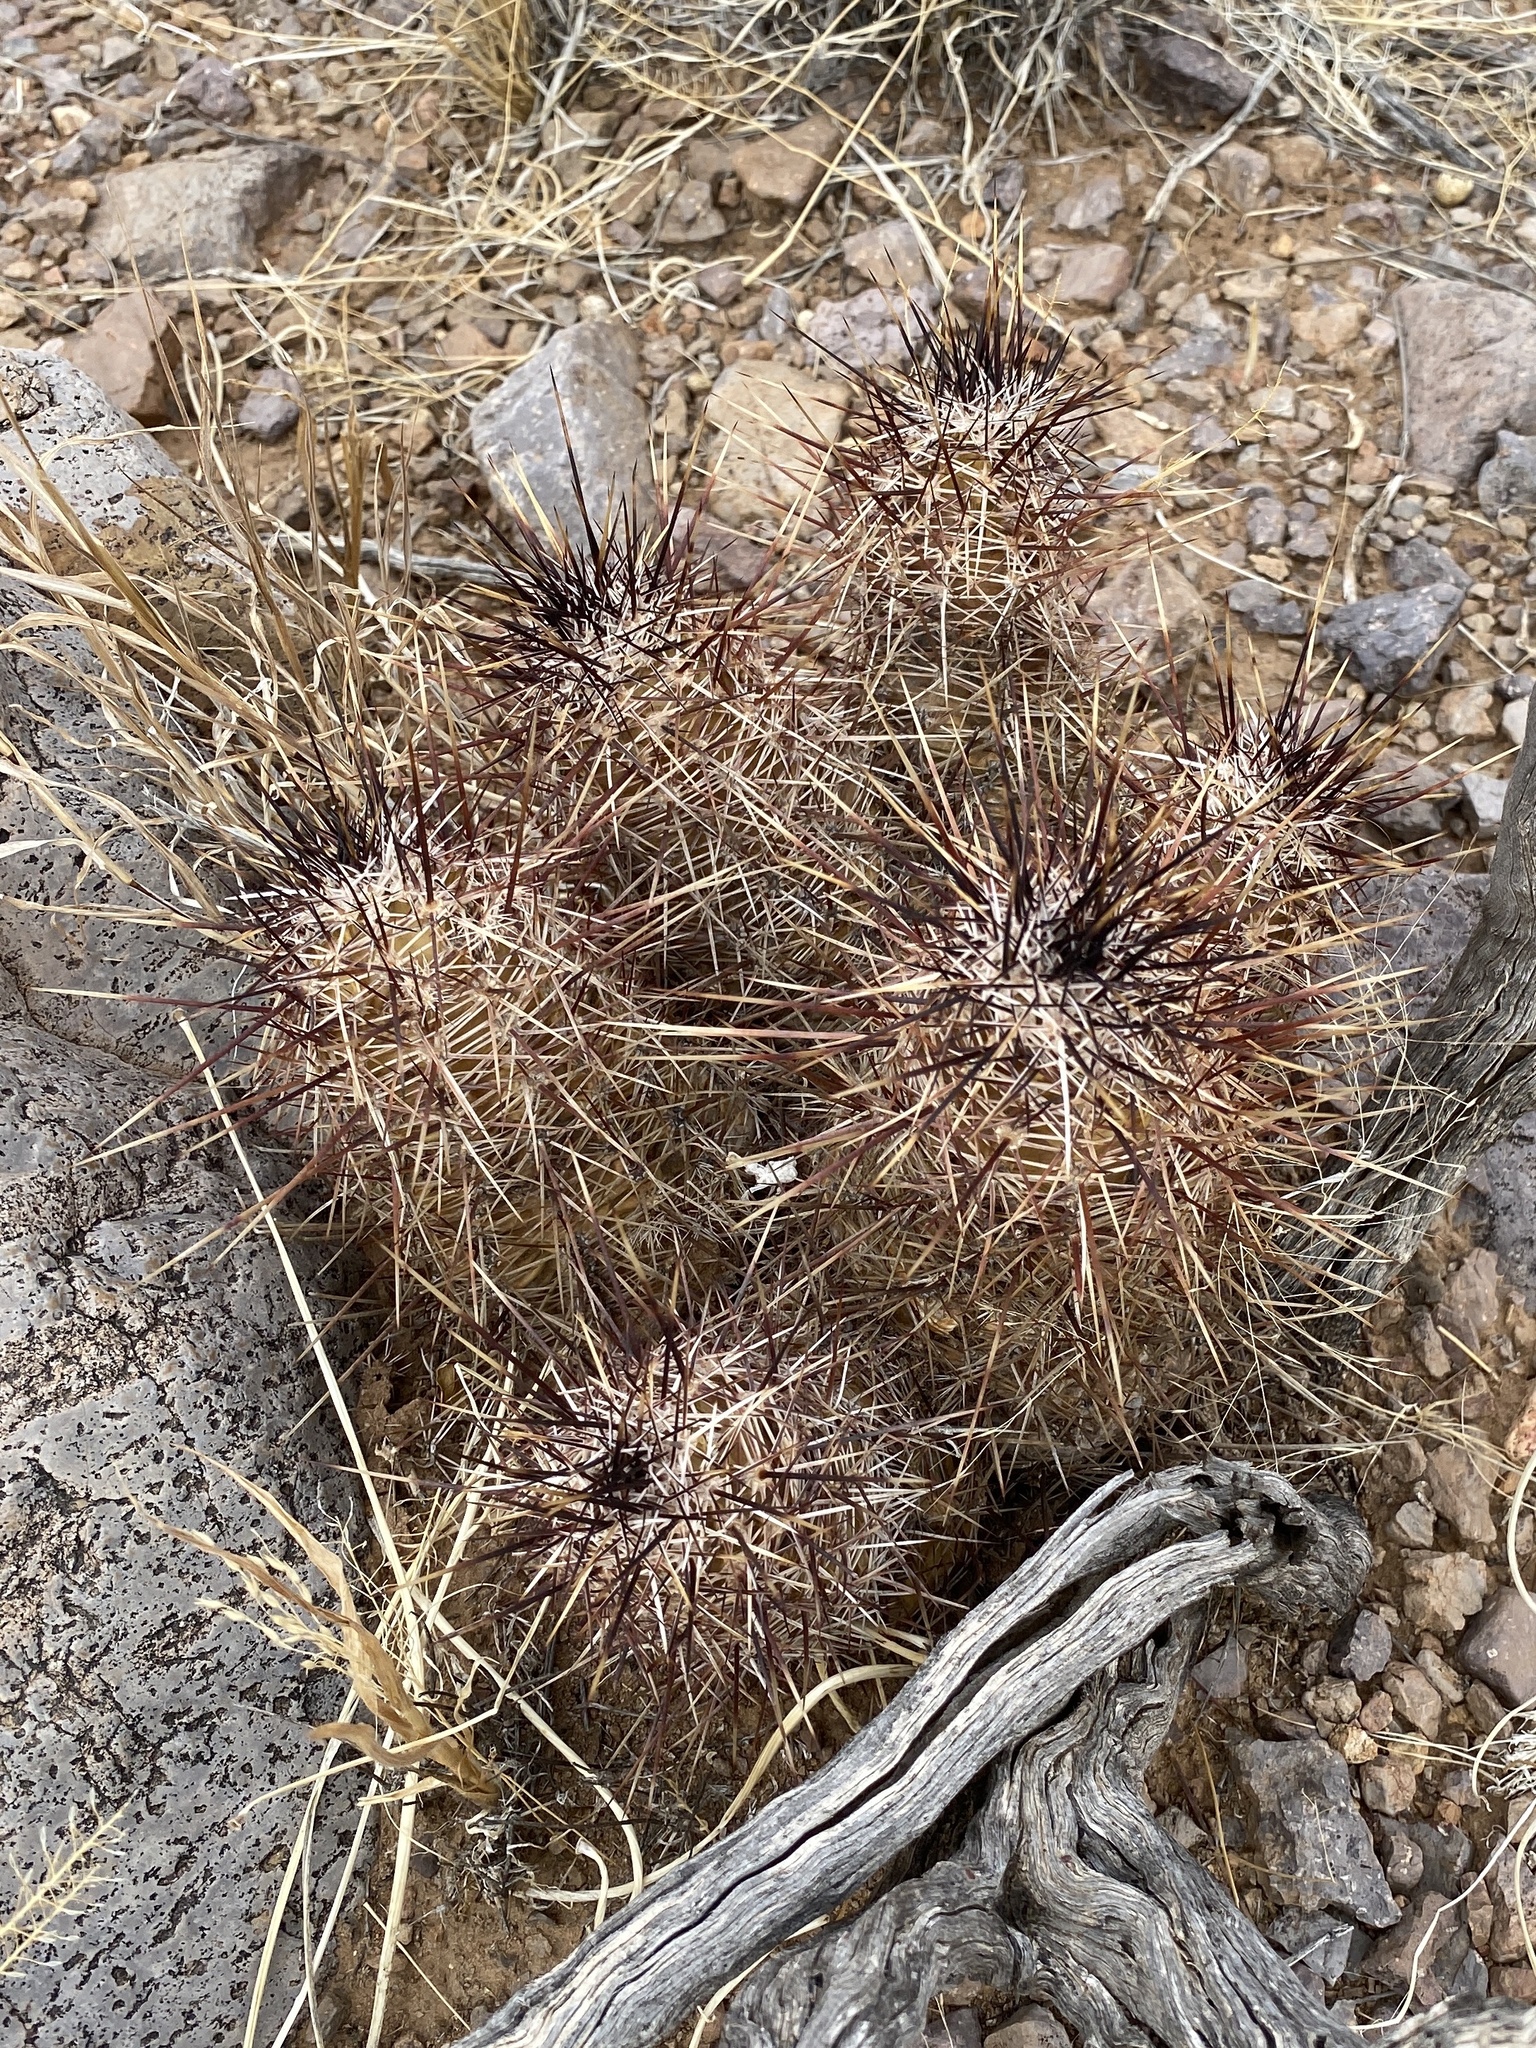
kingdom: Plantae
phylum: Tracheophyta
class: Magnoliopsida
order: Caryophyllales
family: Cactaceae
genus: Echinocereus
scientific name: Echinocereus fendleri
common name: Fendler's hedgehog cactus
